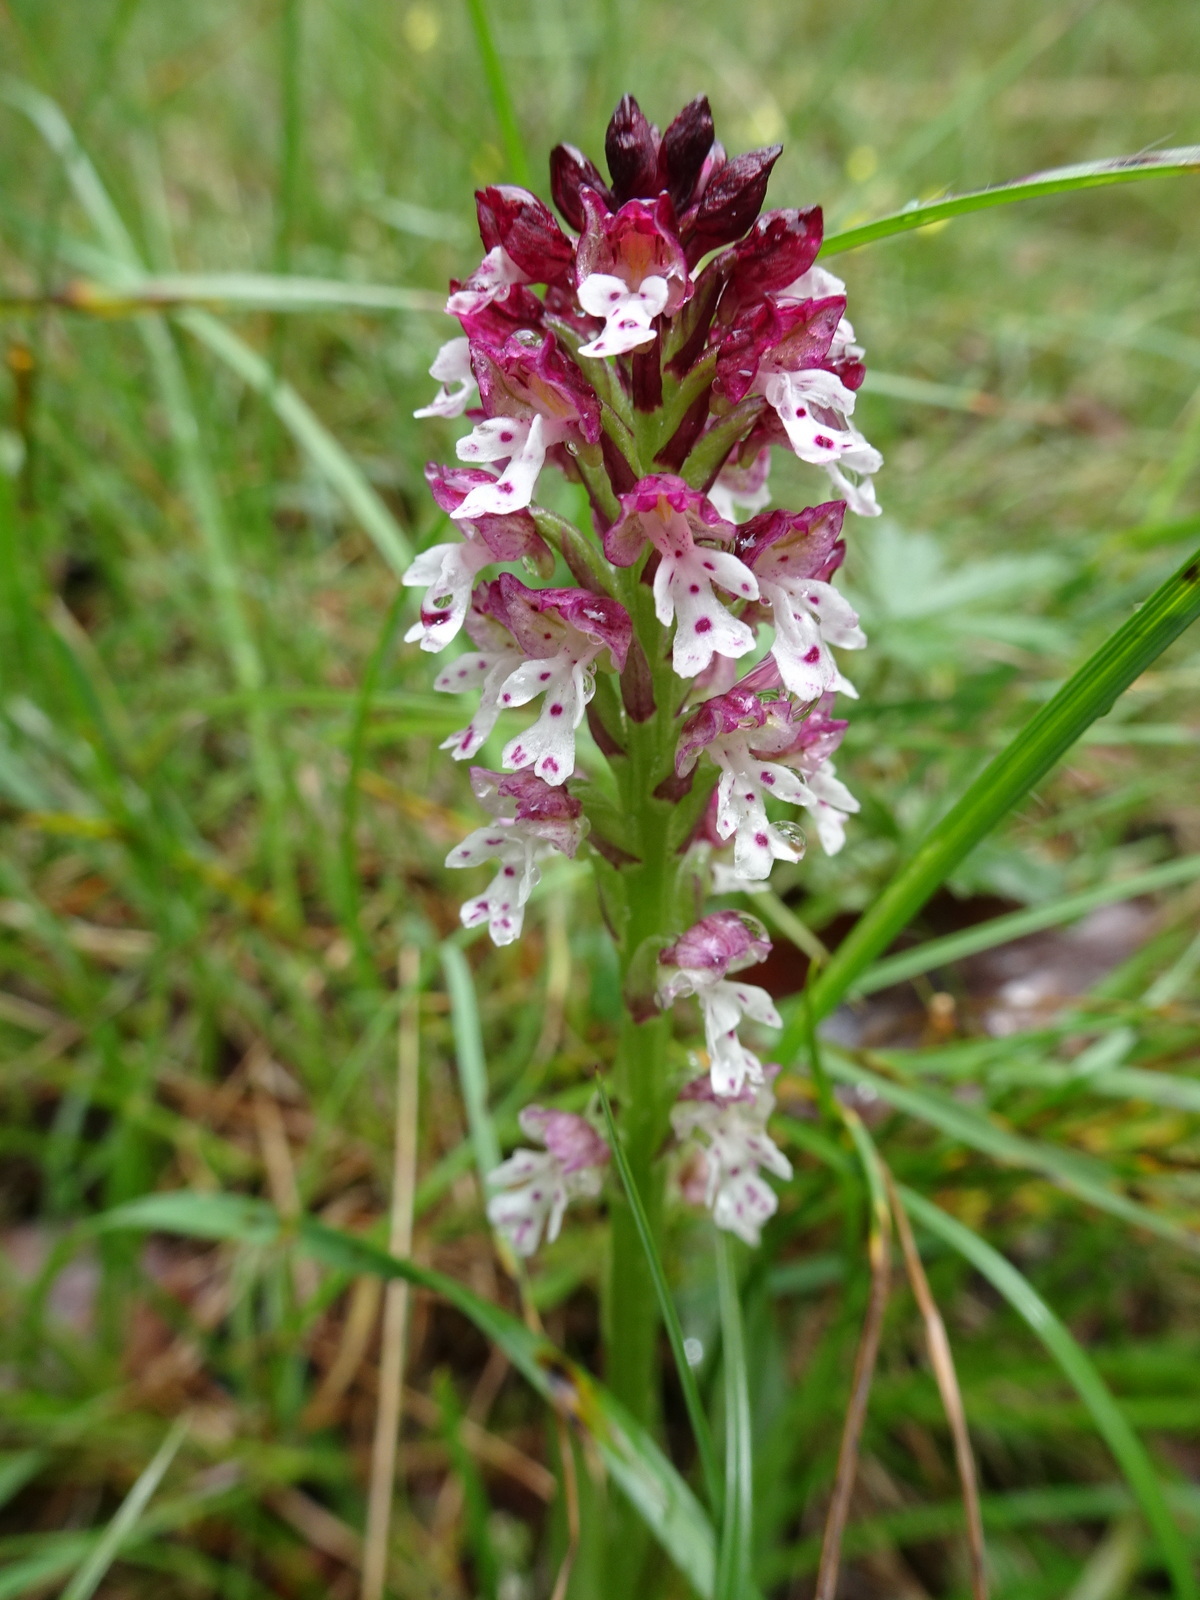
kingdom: Plantae
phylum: Tracheophyta
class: Liliopsida
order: Asparagales
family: Orchidaceae
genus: Neotinea
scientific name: Neotinea ustulata
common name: Burnt orchid
